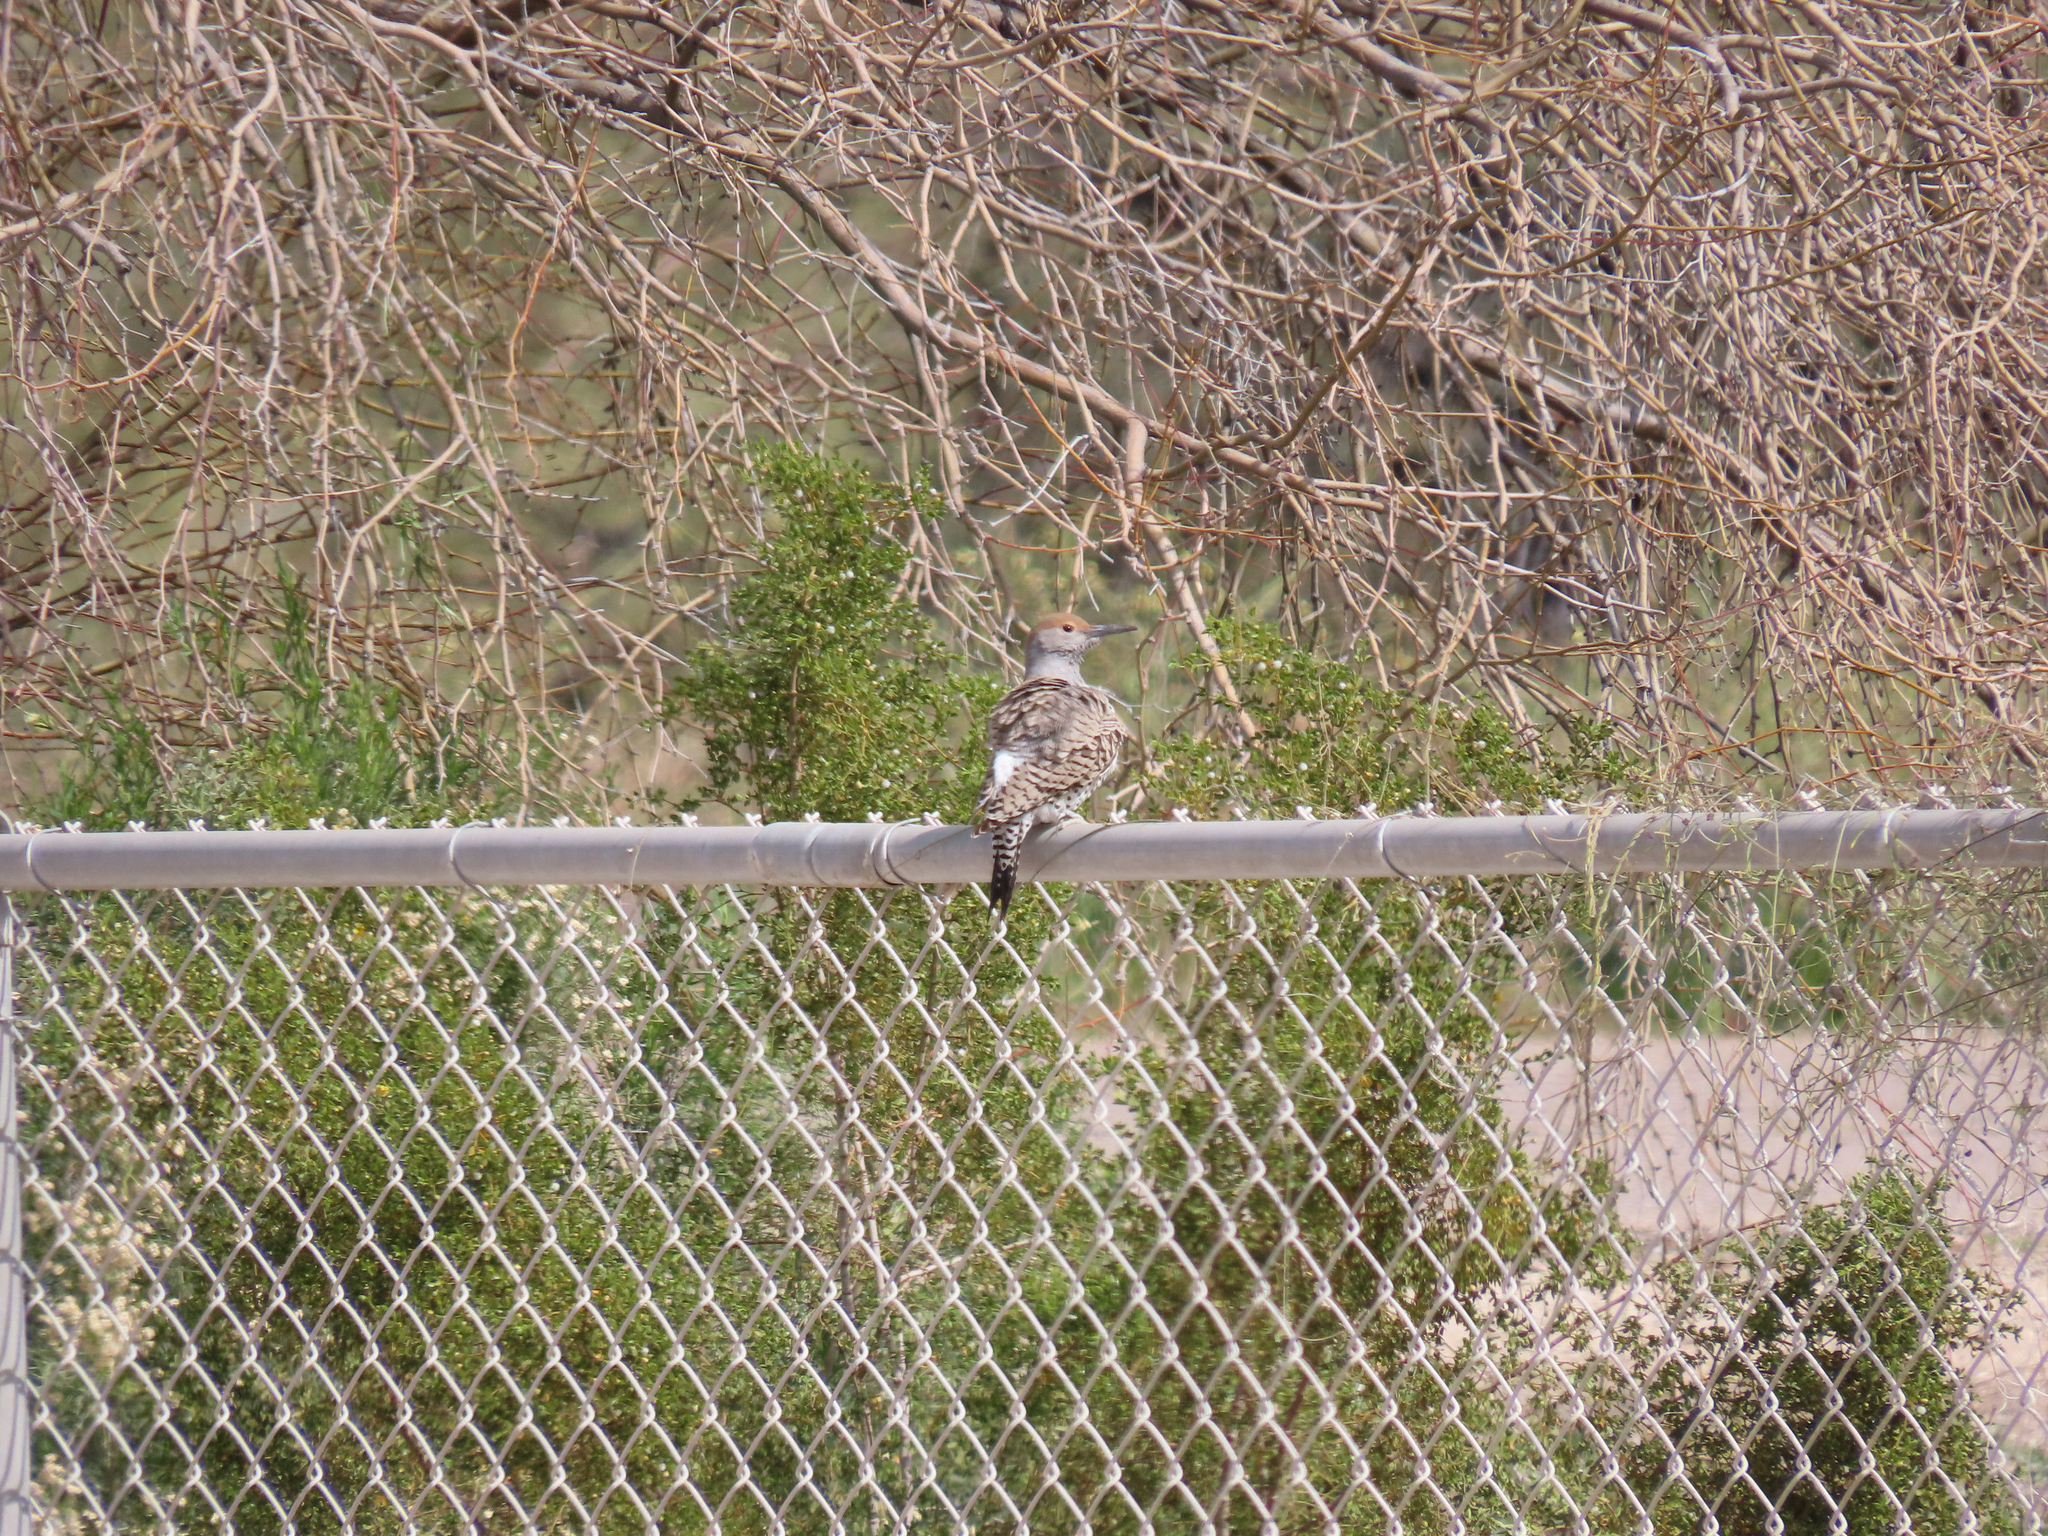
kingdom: Animalia
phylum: Chordata
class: Aves
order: Piciformes
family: Picidae
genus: Colaptes
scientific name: Colaptes chrysoides
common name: Gilded flicker
